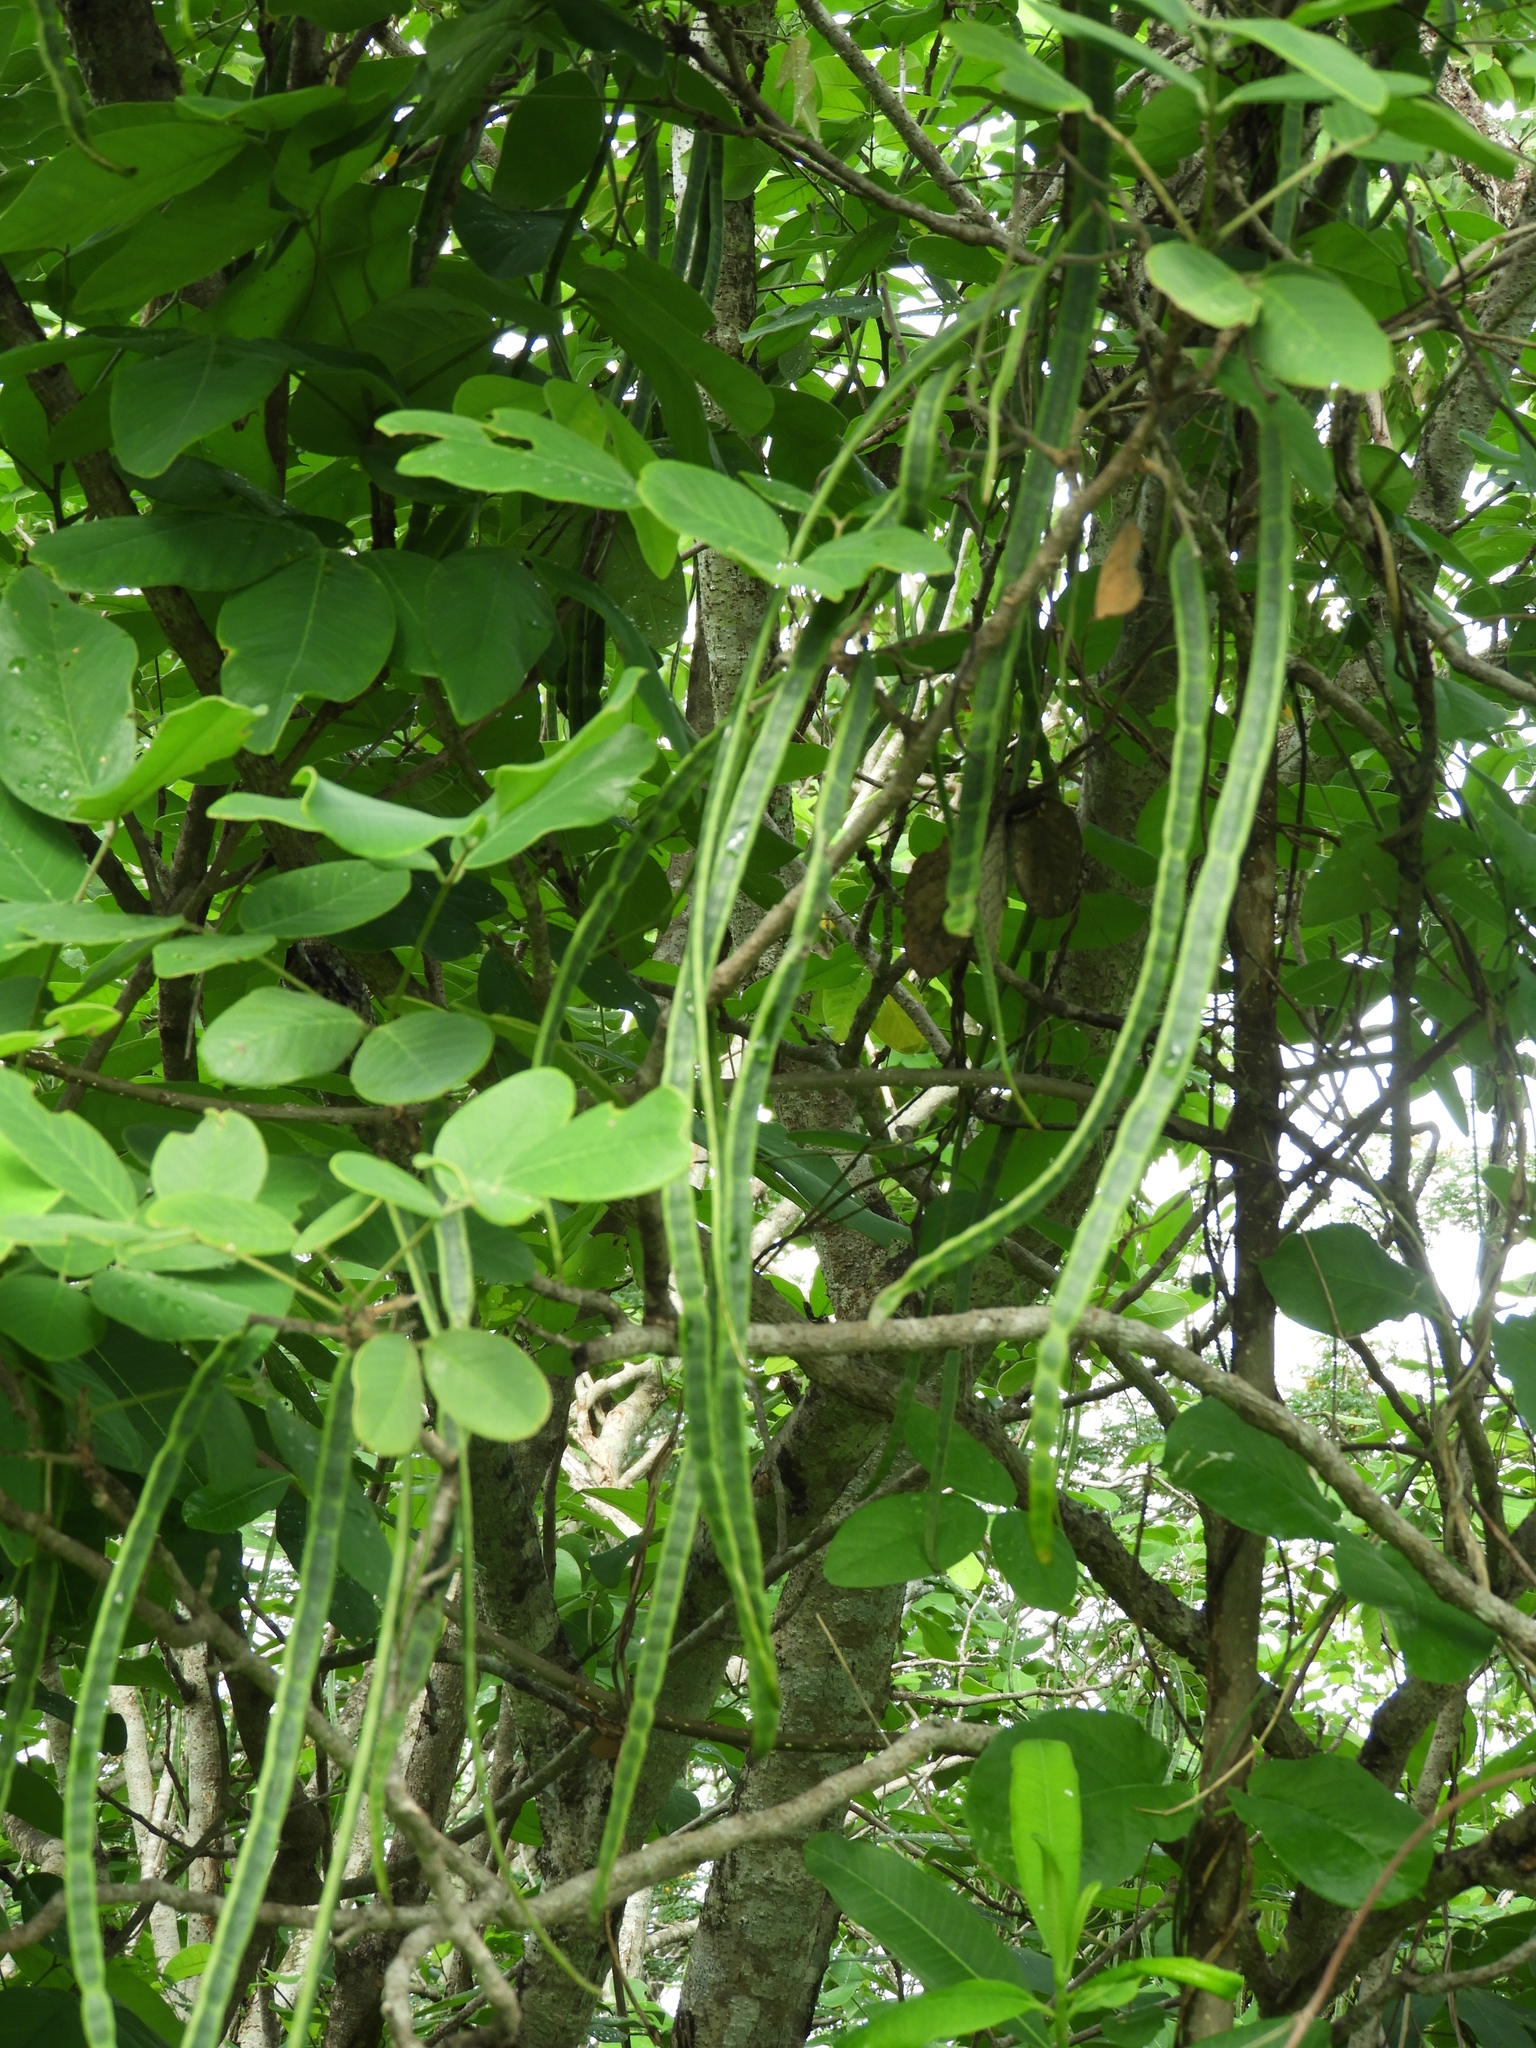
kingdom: Plantae
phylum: Tracheophyta
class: Magnoliopsida
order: Fabales
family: Fabaceae
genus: Senna
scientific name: Senna atomaria
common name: Flor de san jose
